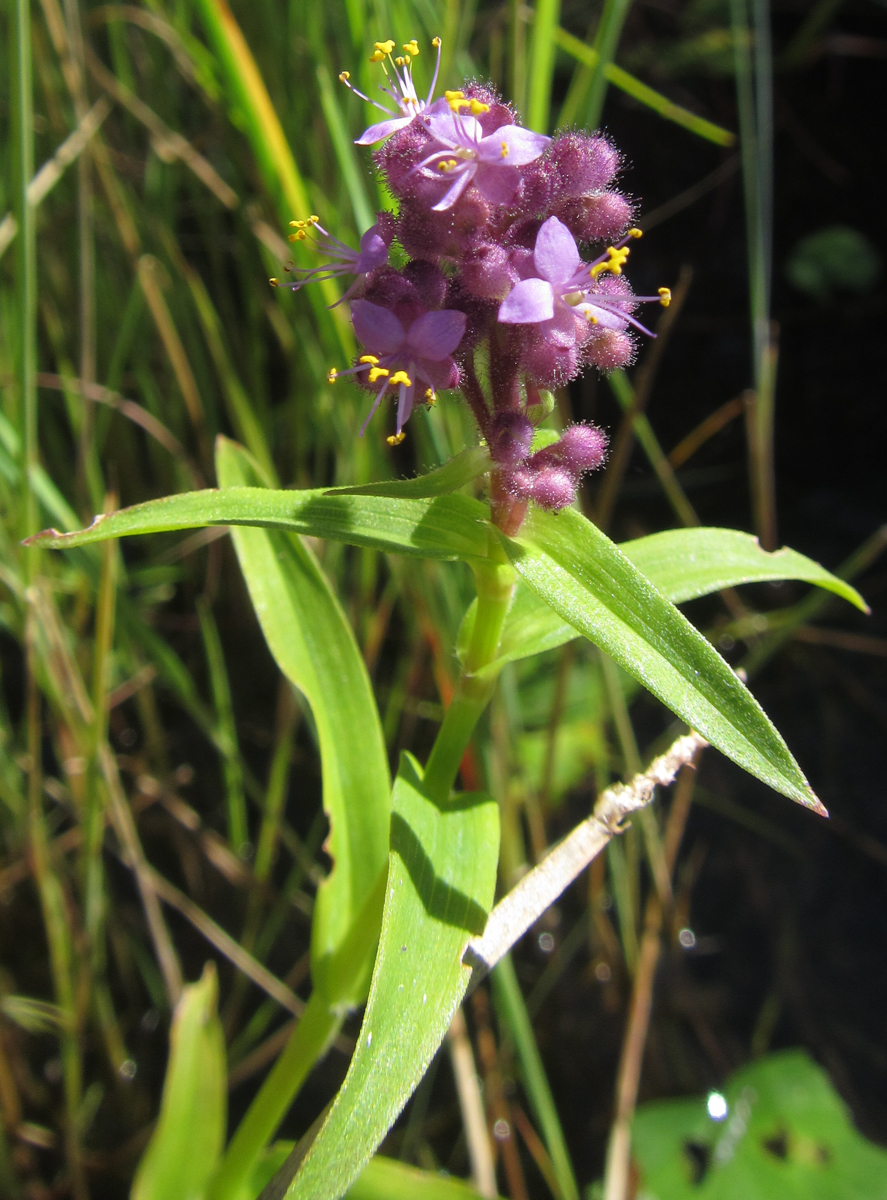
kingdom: Plantae
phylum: Tracheophyta
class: Liliopsida
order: Commelinales
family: Commelinaceae
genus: Floscopa
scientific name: Floscopa glomerata
